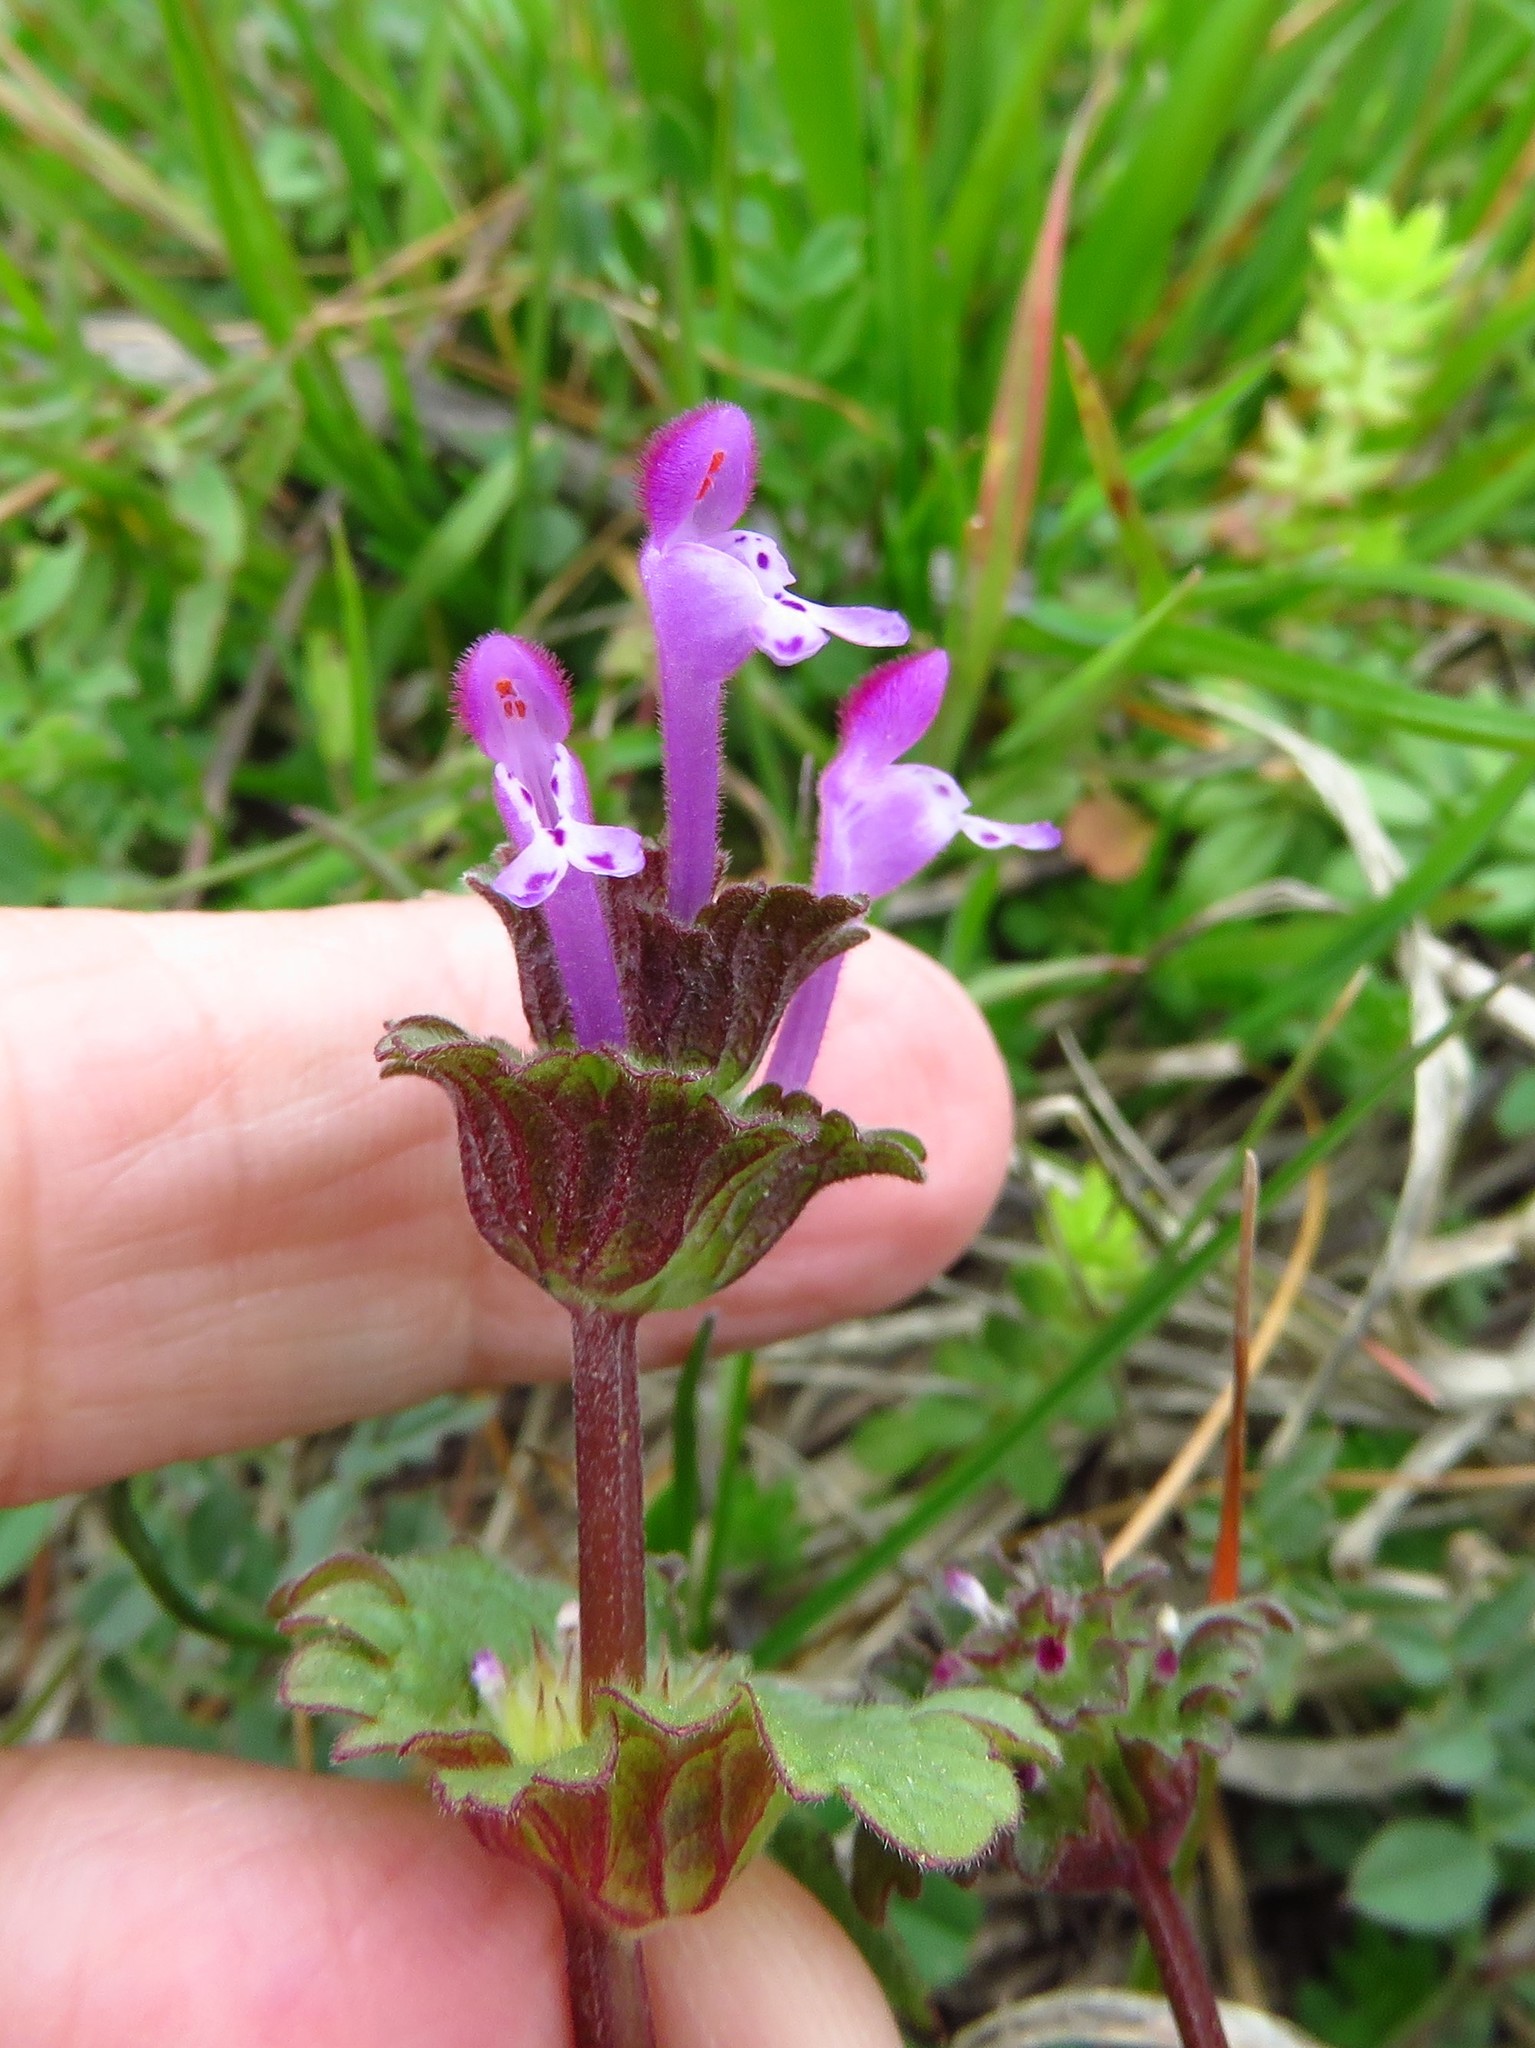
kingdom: Plantae
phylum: Tracheophyta
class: Magnoliopsida
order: Lamiales
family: Lamiaceae
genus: Lamium
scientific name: Lamium amplexicaule
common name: Henbit dead-nettle
